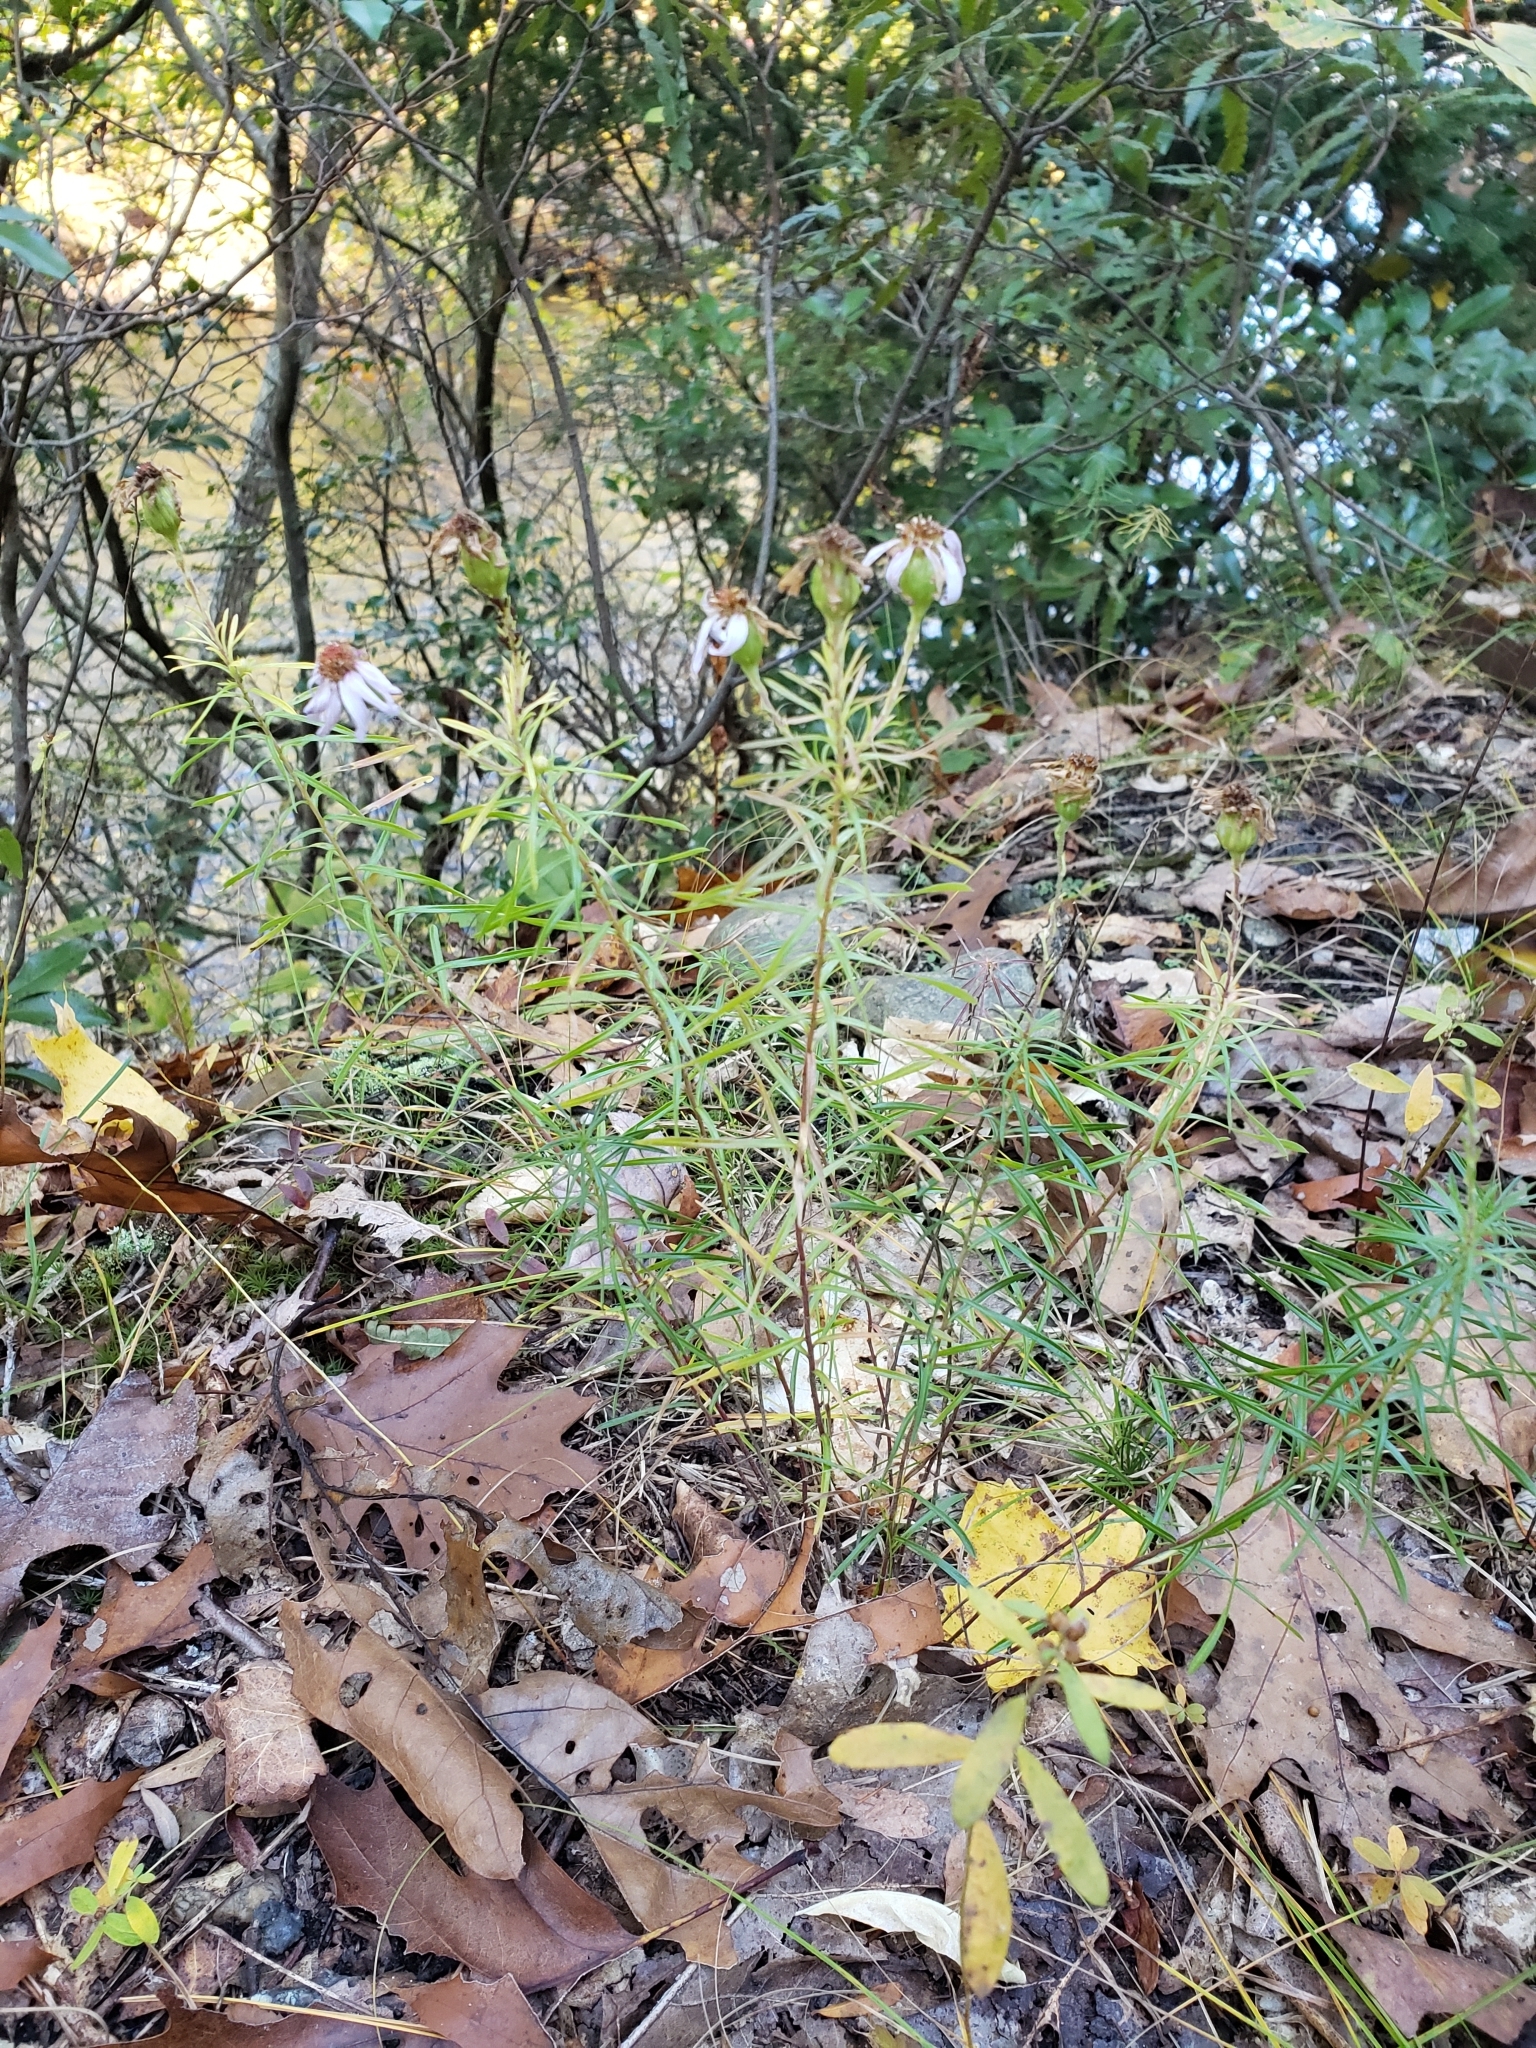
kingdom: Plantae
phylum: Tracheophyta
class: Magnoliopsida
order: Asterales
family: Asteraceae
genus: Ionactis
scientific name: Ionactis linariifolia
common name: Flax-leaf aster
